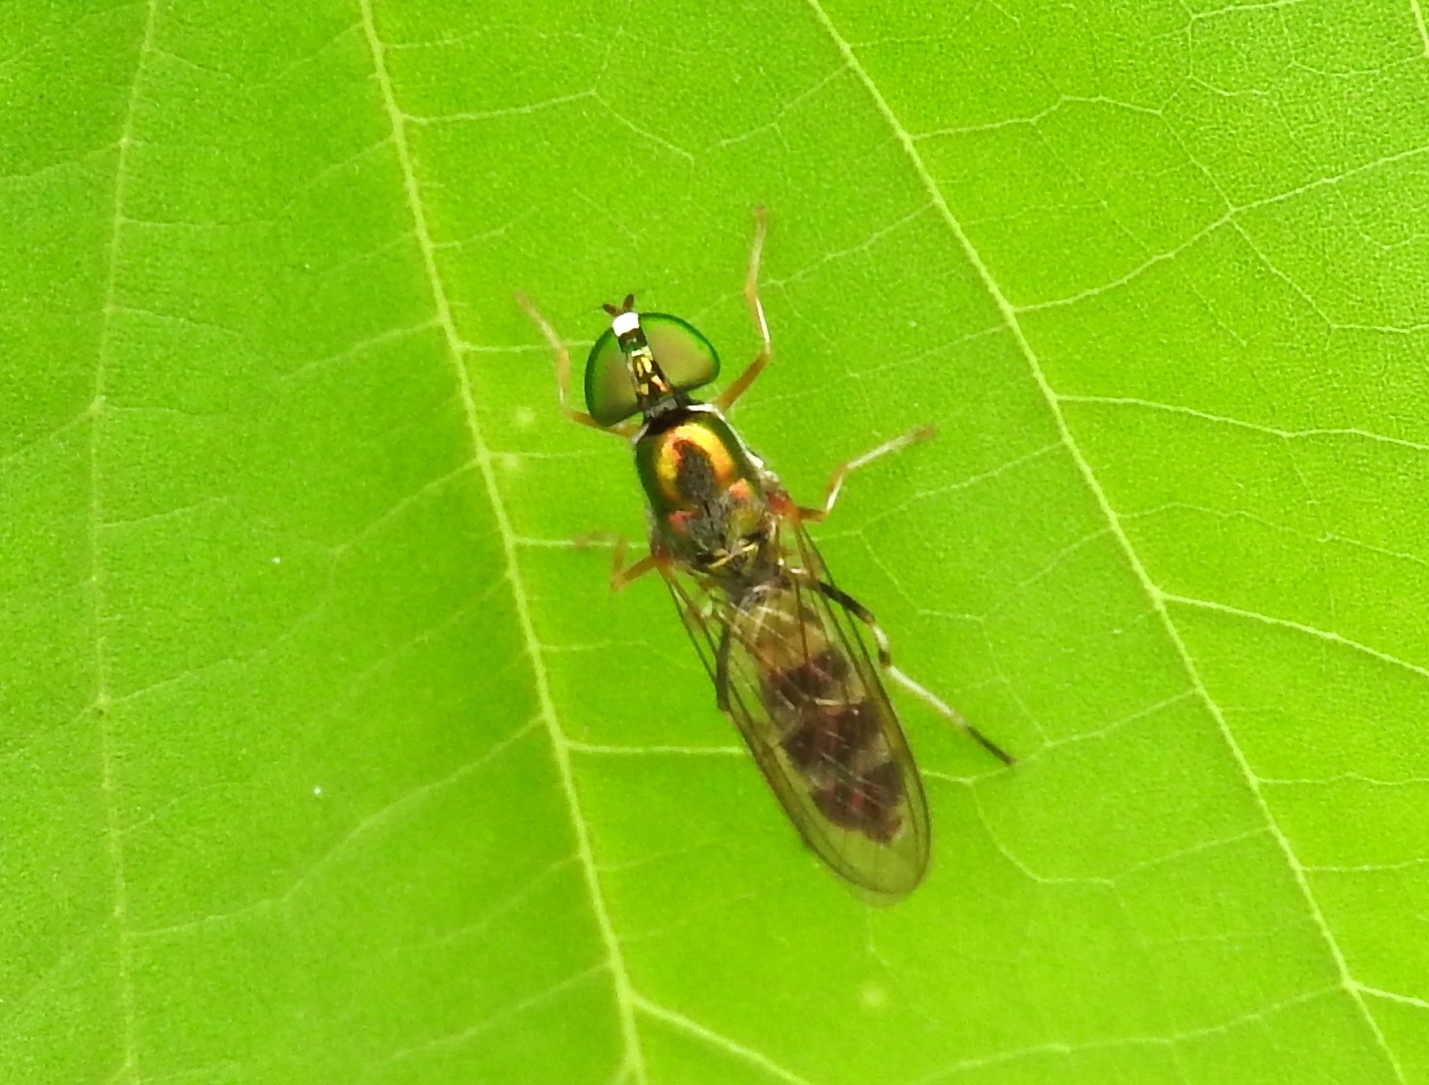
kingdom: Animalia
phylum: Arthropoda
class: Insecta
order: Diptera
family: Stratiomyidae
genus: Sargus
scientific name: Sargus fasciatus
